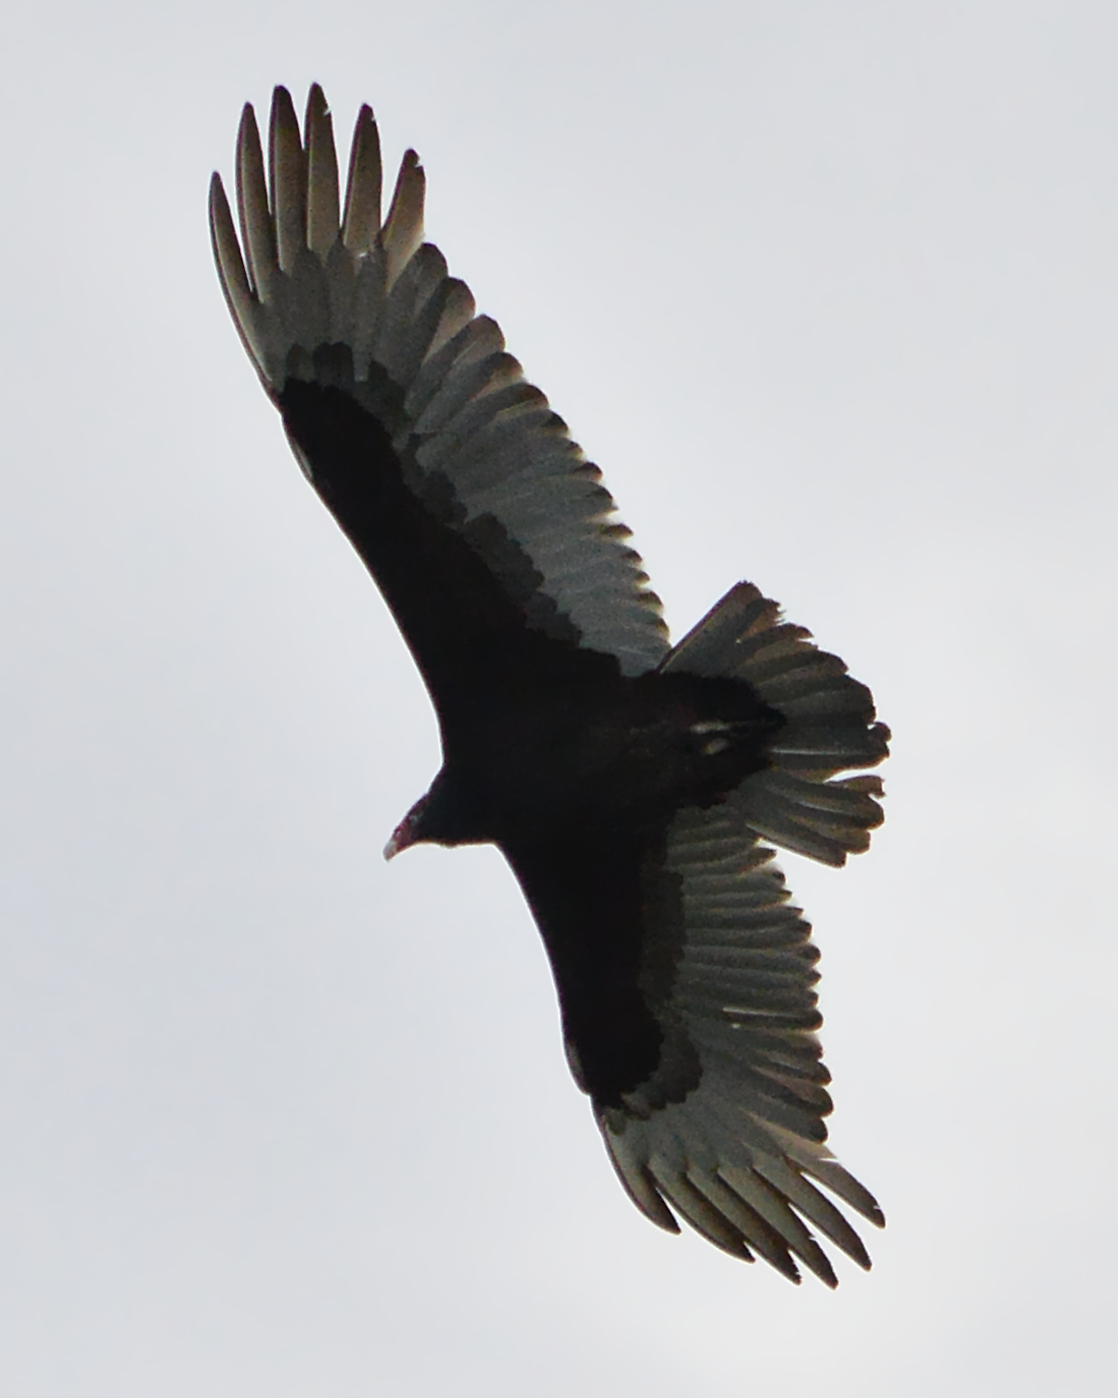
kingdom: Animalia
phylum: Chordata
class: Aves
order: Accipitriformes
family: Cathartidae
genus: Cathartes
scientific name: Cathartes aura
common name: Turkey vulture
